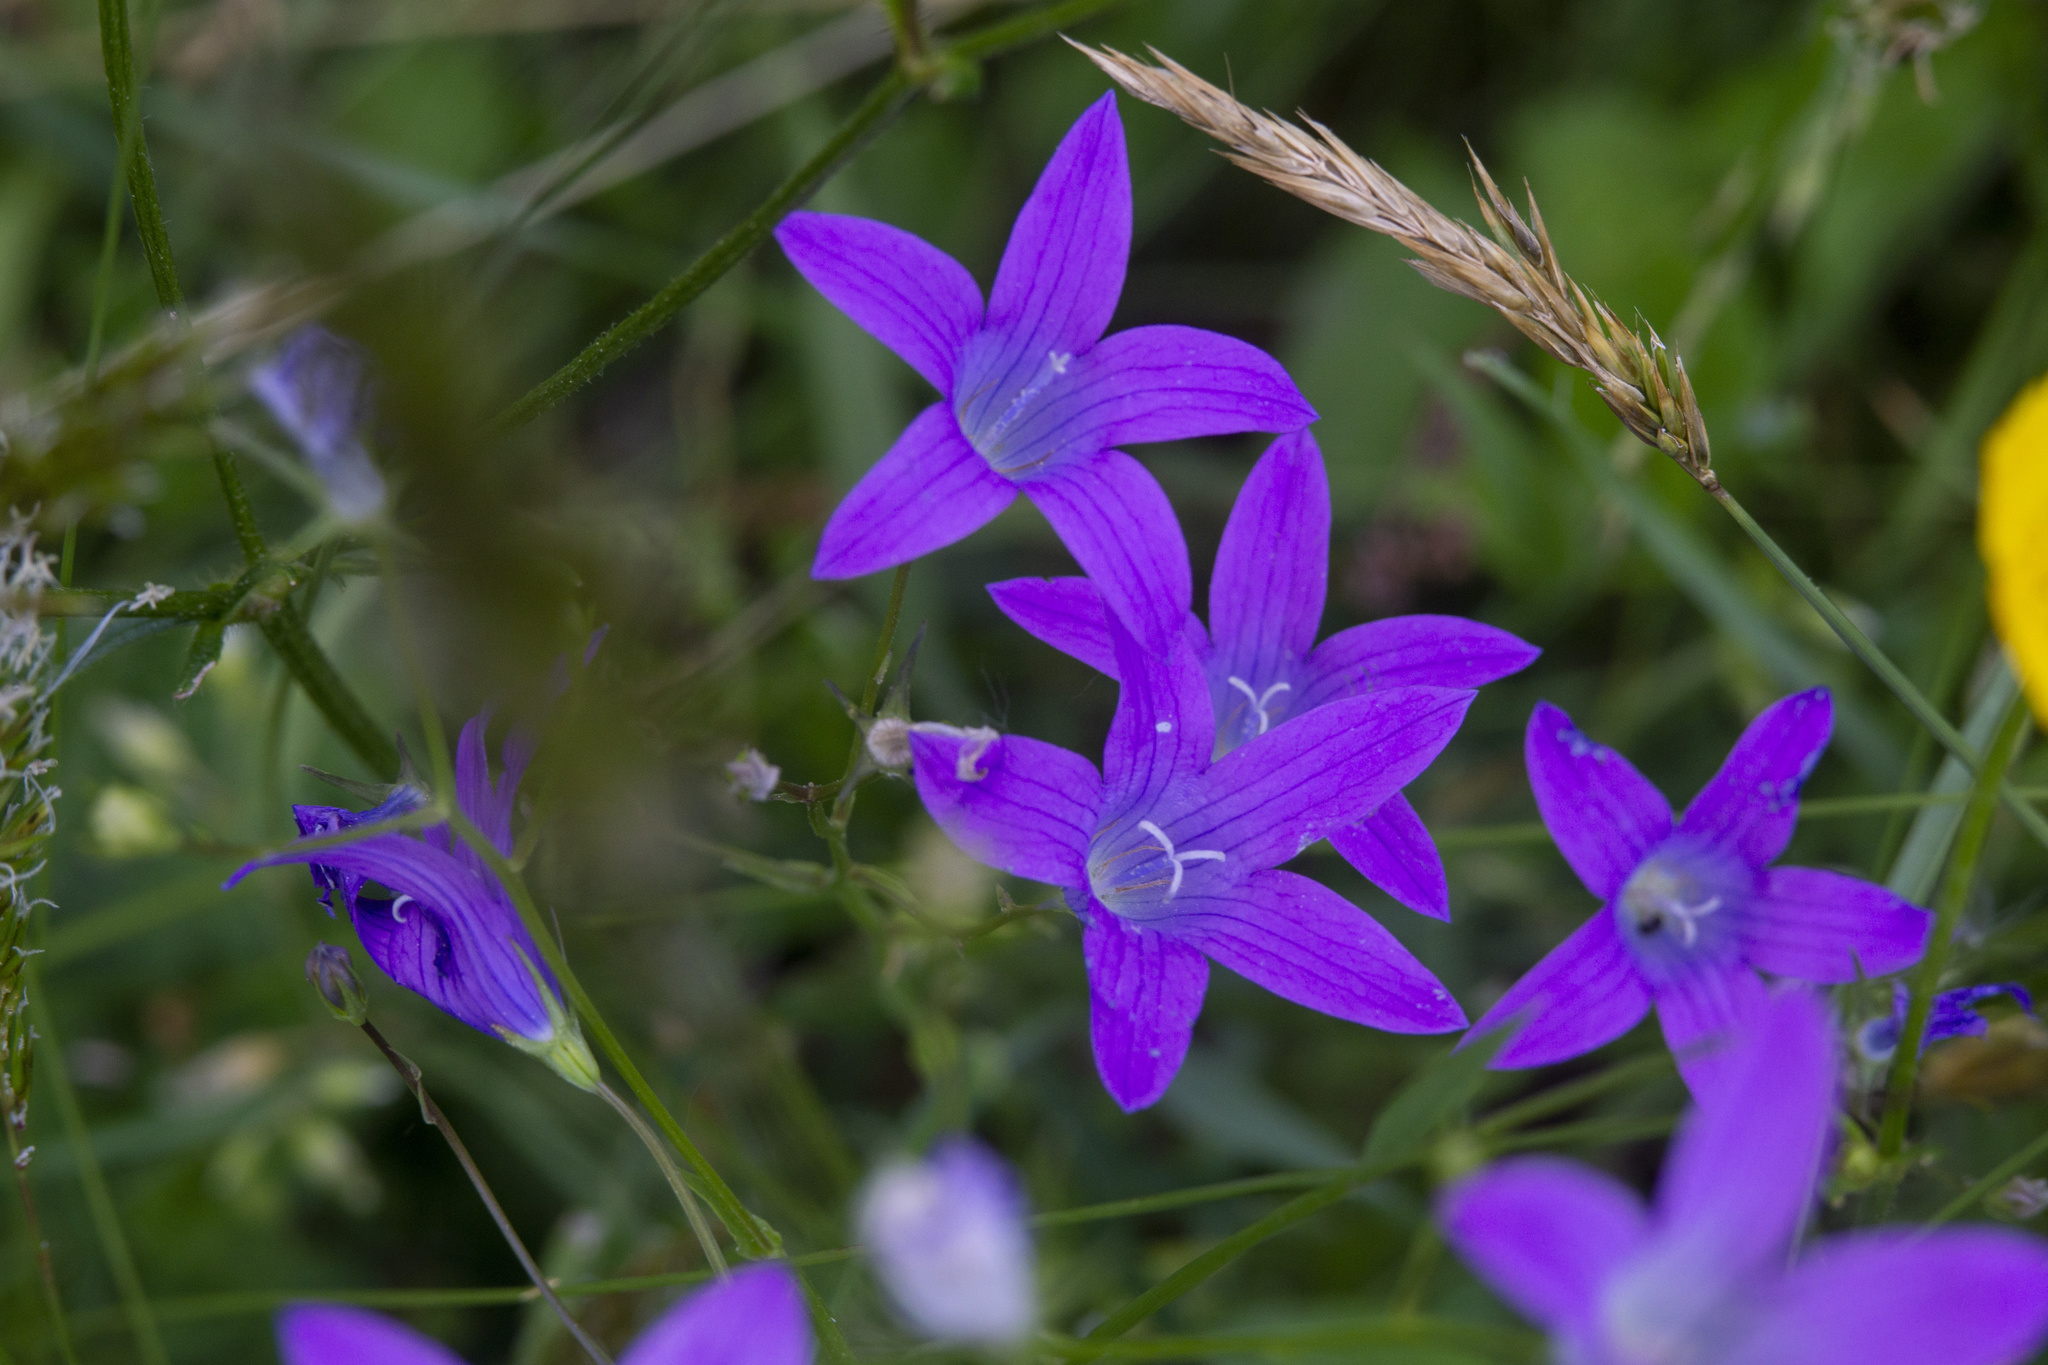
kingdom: Plantae
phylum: Tracheophyta
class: Magnoliopsida
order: Asterales
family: Campanulaceae
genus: Campanula
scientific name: Campanula patula
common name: Spreading bellflower
